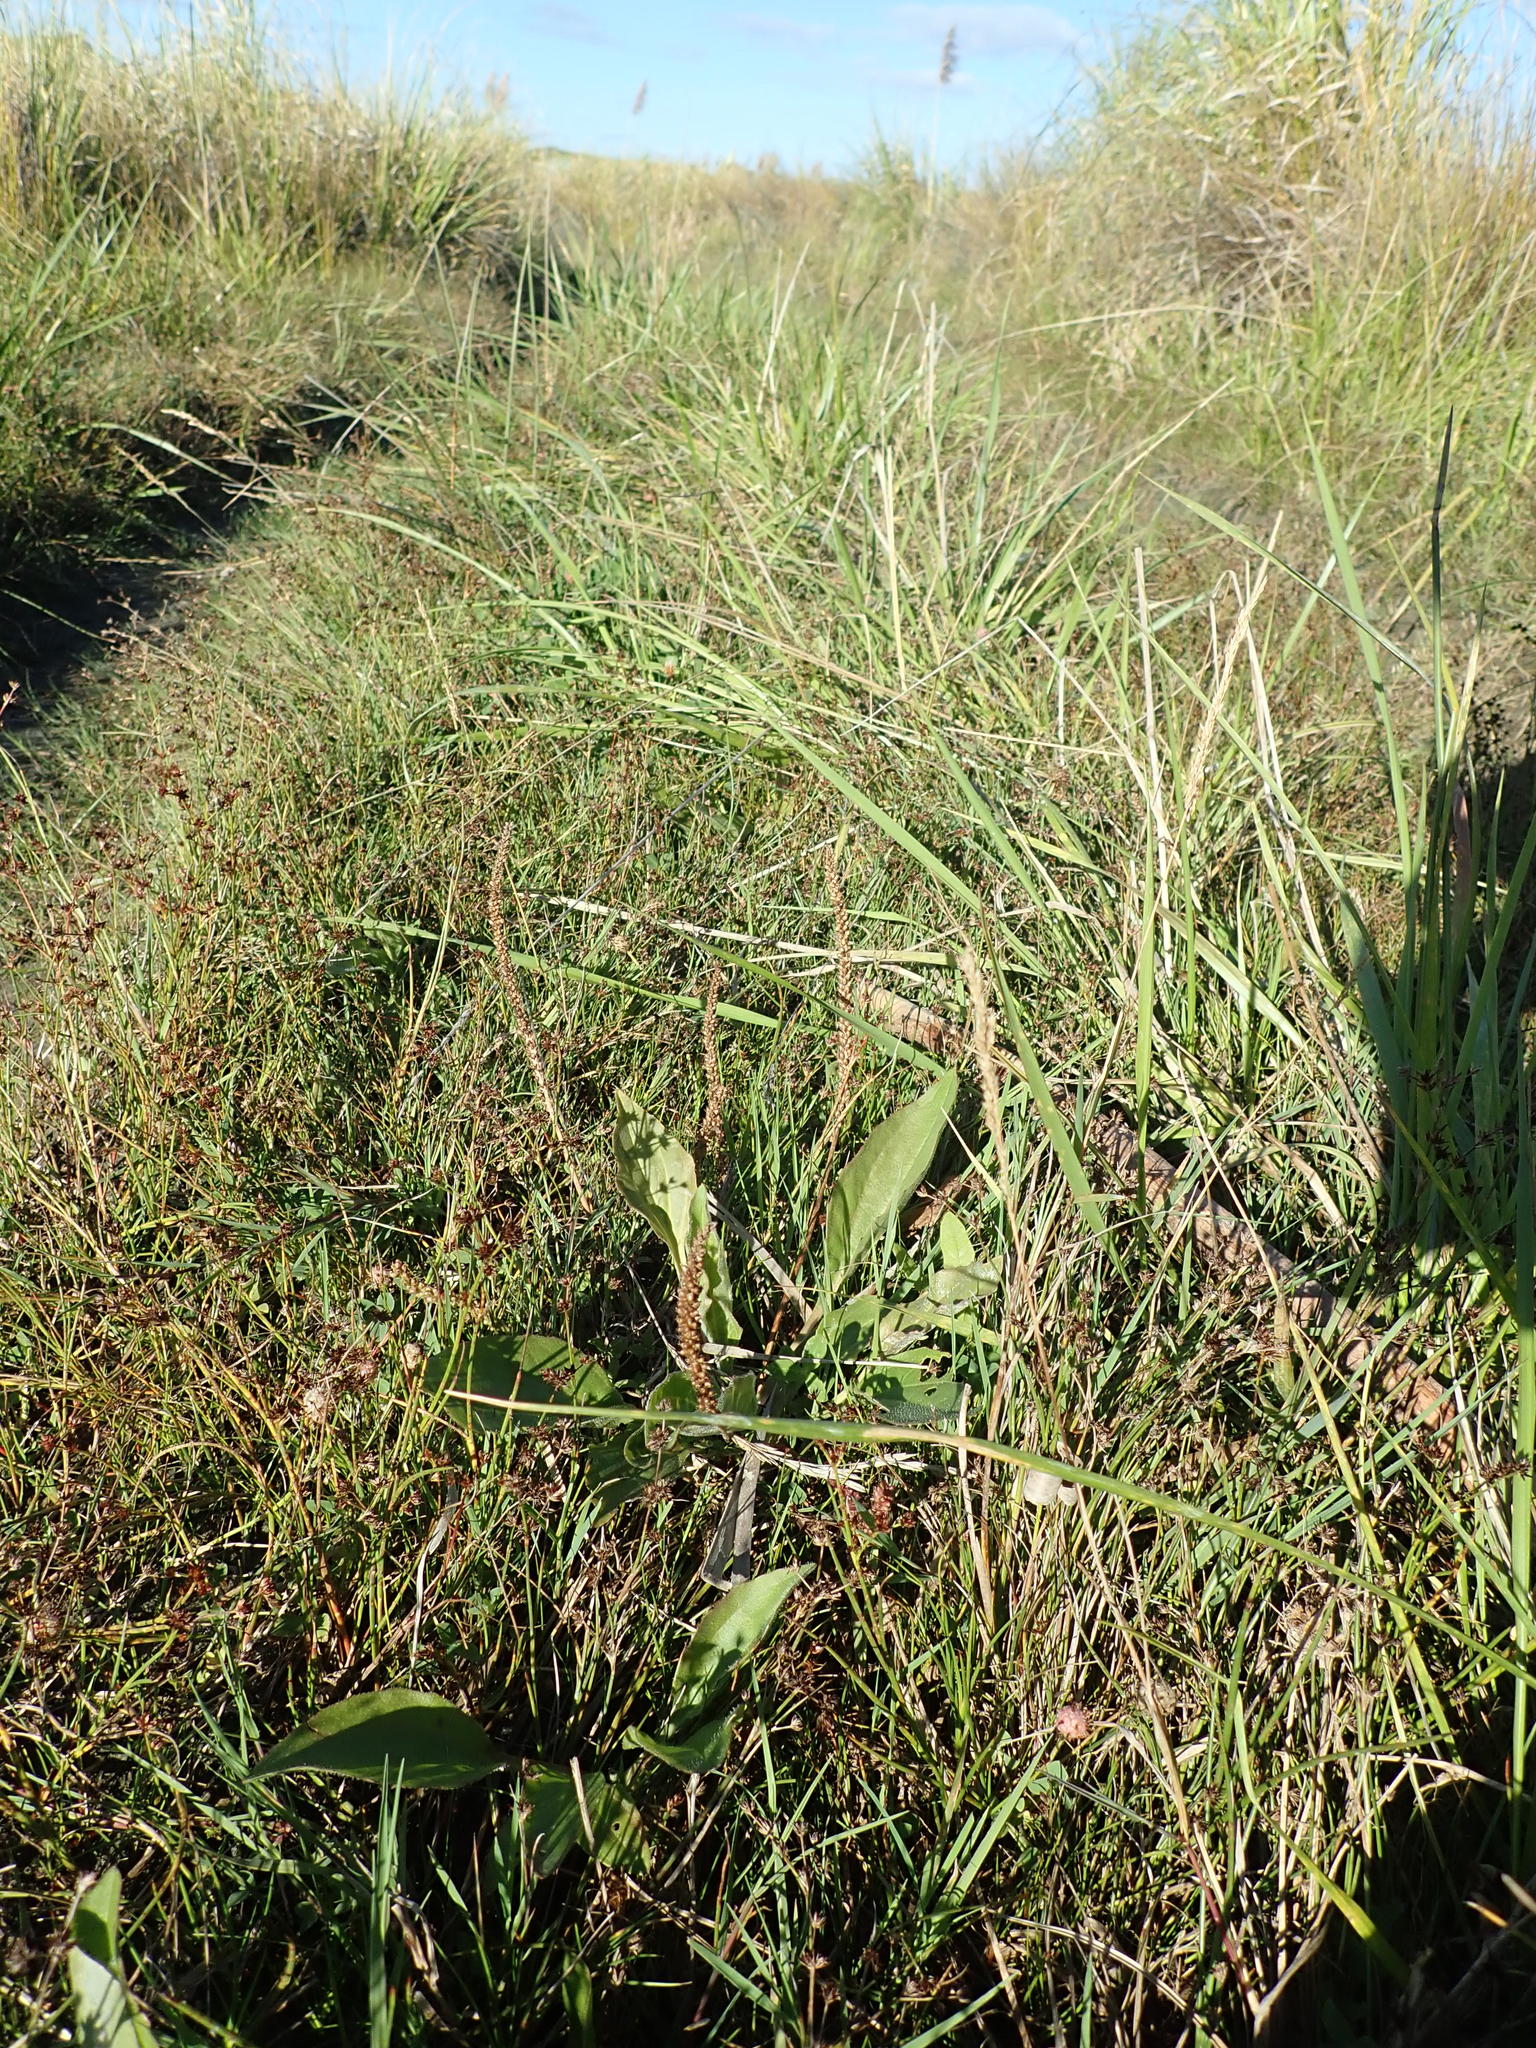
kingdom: Plantae
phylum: Tracheophyta
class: Magnoliopsida
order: Lamiales
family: Plantaginaceae
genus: Plantago
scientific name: Plantago australis
